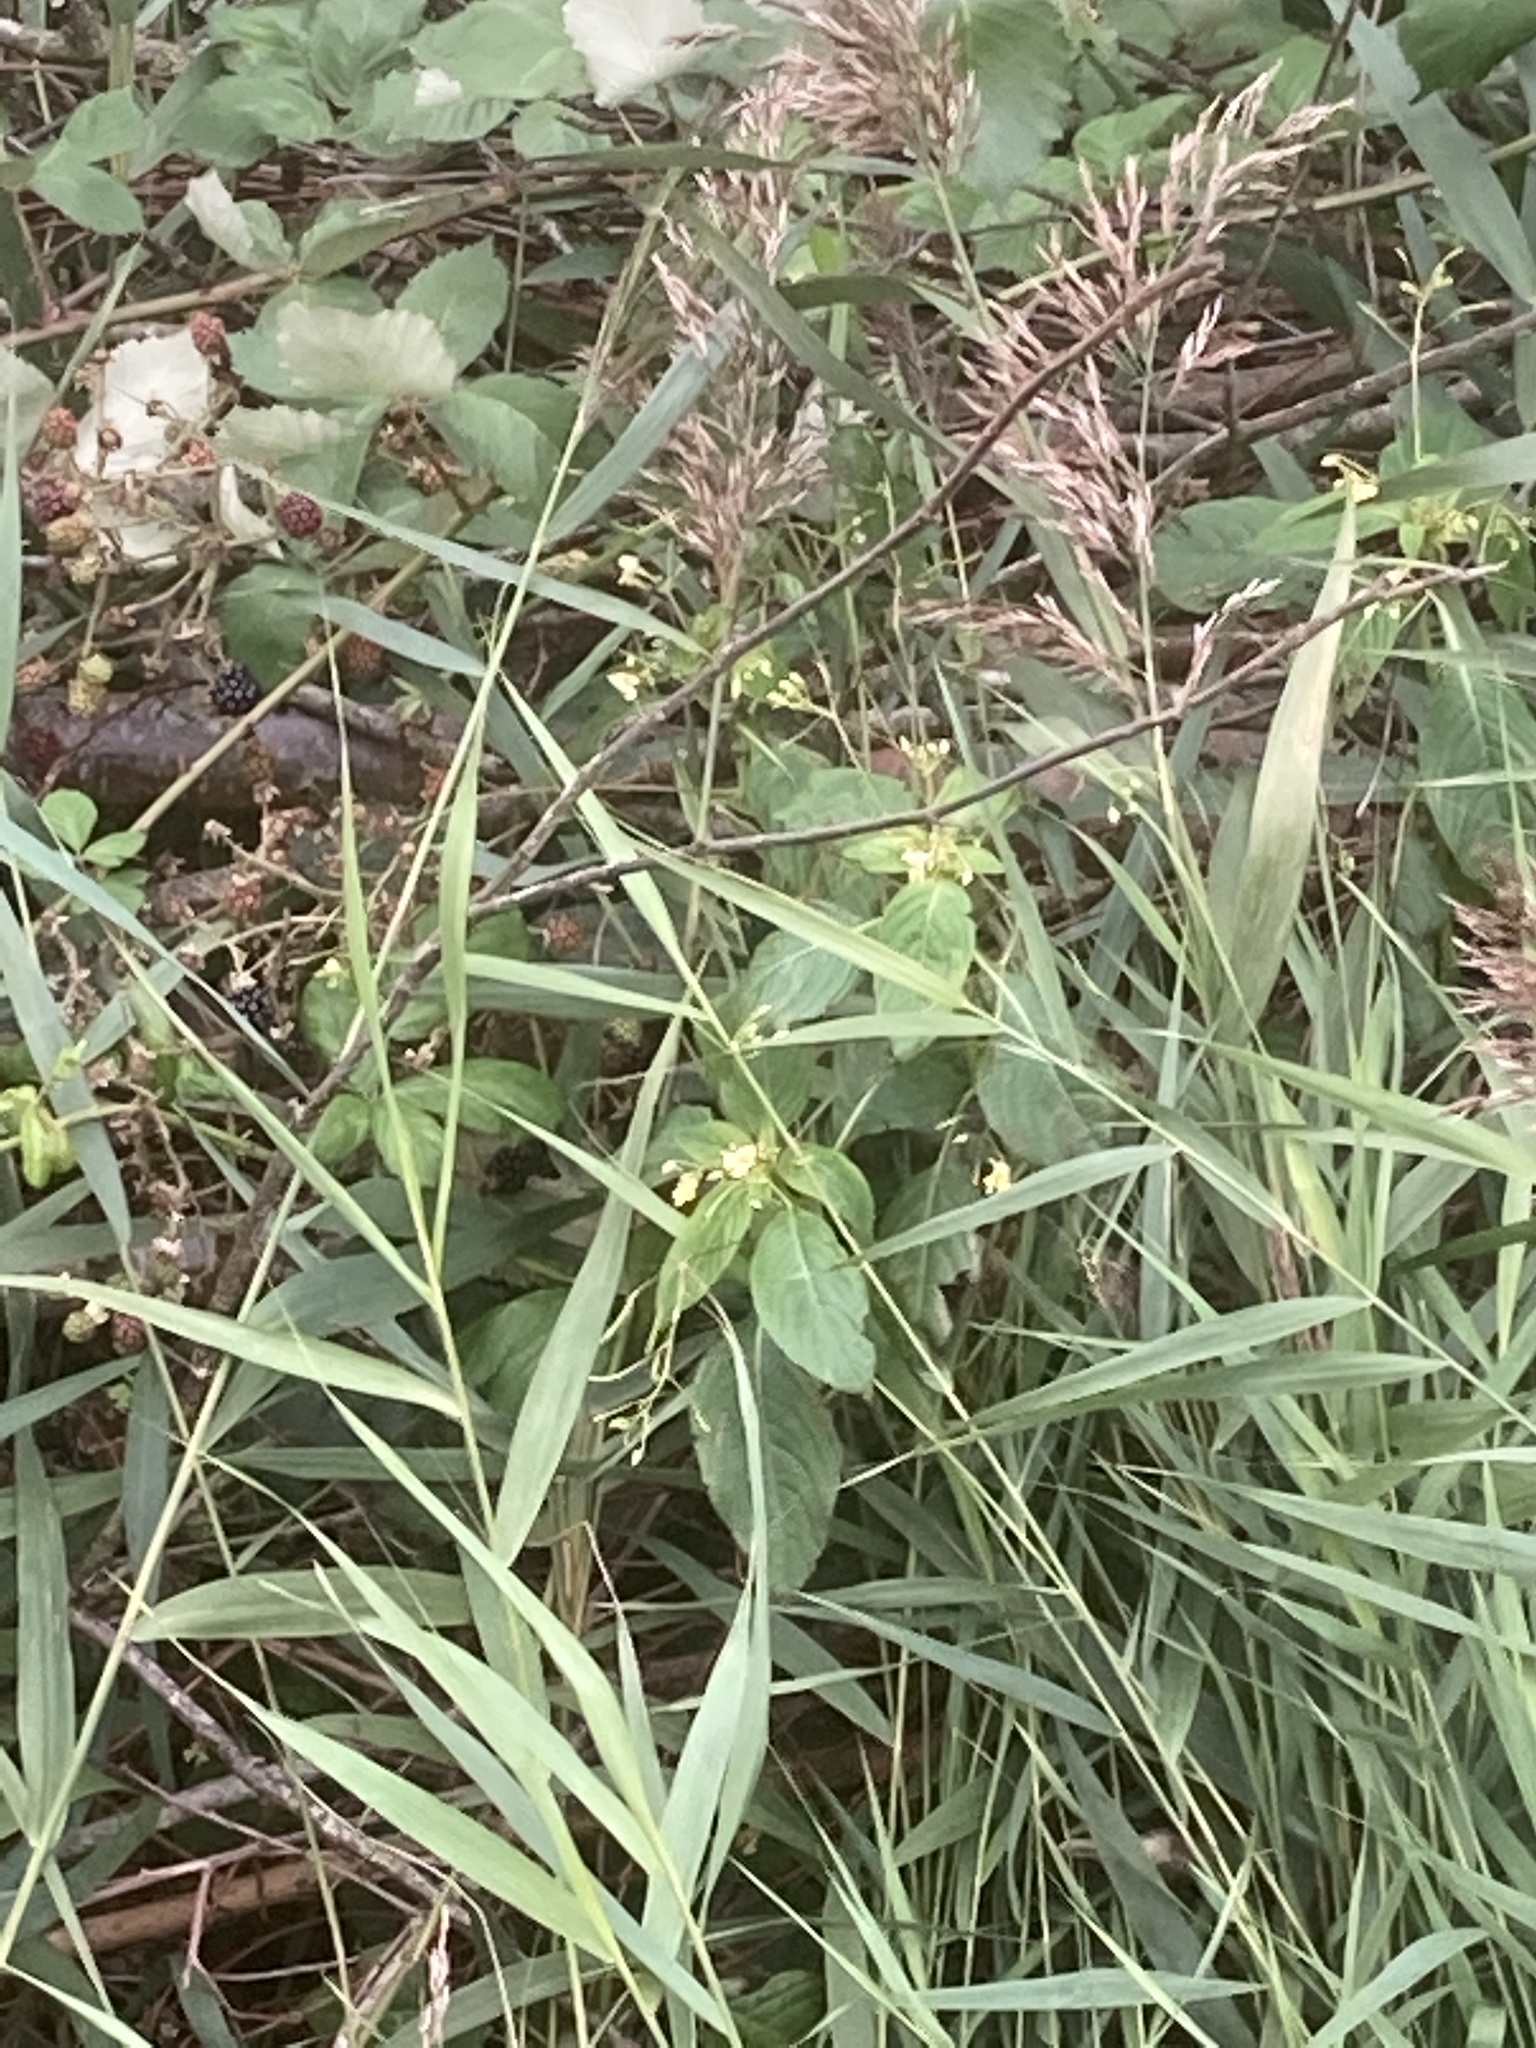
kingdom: Plantae
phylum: Tracheophyta
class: Magnoliopsida
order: Ericales
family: Balsaminaceae
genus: Impatiens
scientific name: Impatiens parviflora
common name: Small balsam
